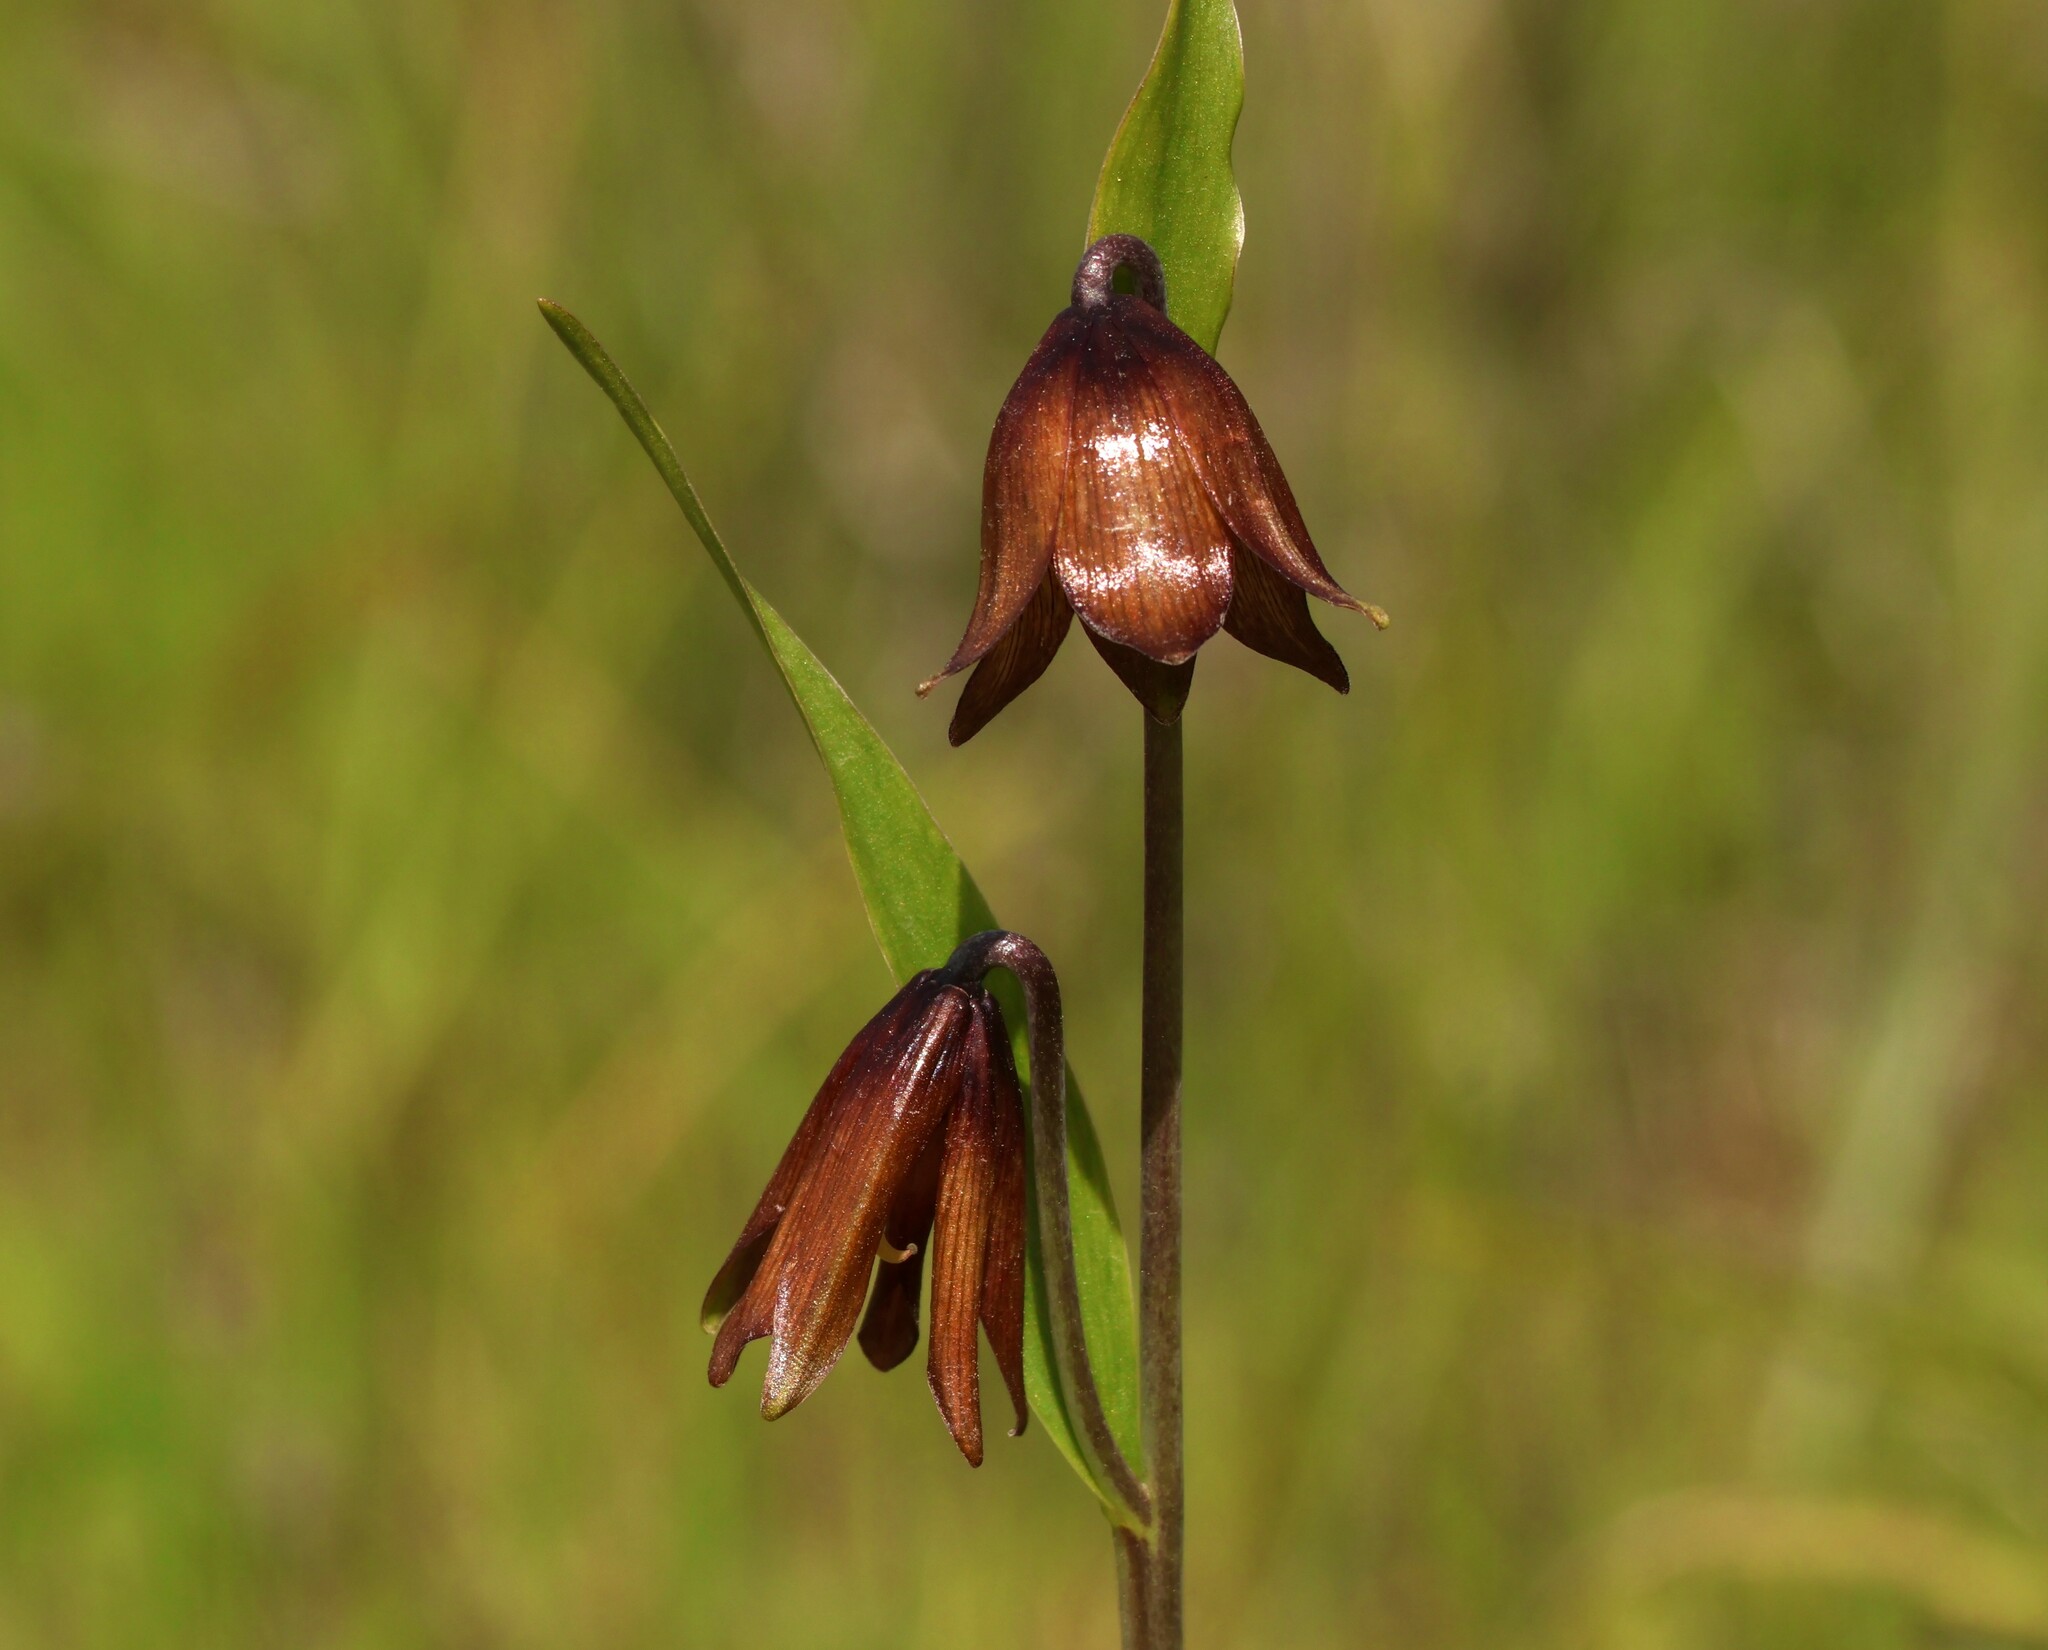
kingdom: Plantae
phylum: Tracheophyta
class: Liliopsida
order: Liliales
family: Liliaceae
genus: Fritillaria
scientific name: Fritillaria biflora
